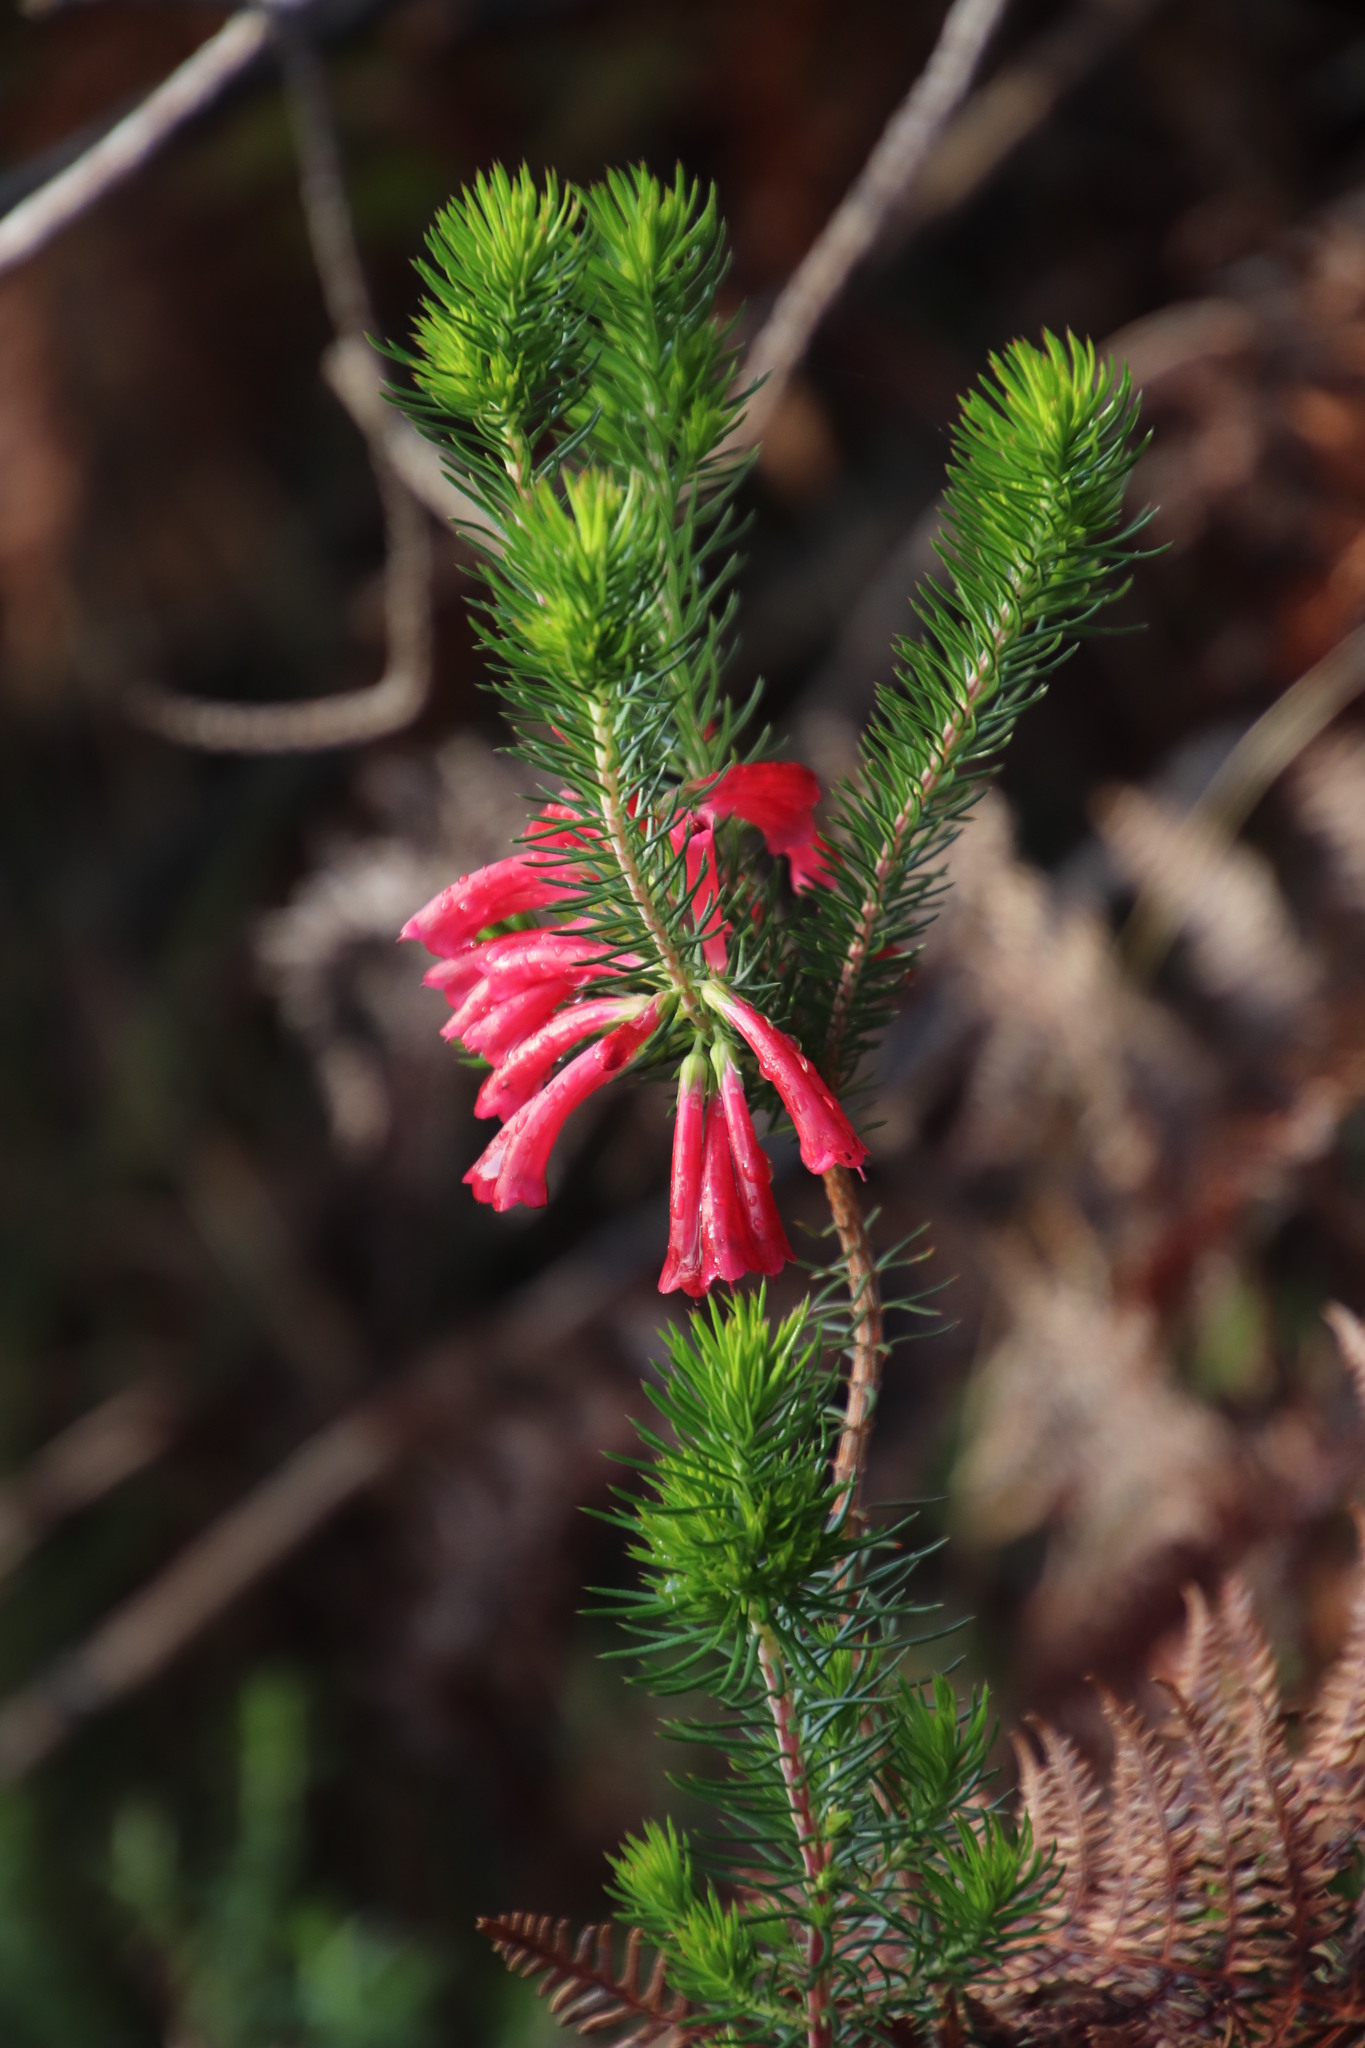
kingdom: Plantae
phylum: Tracheophyta
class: Magnoliopsida
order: Ericales
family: Ericaceae
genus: Erica
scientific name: Erica abietina
